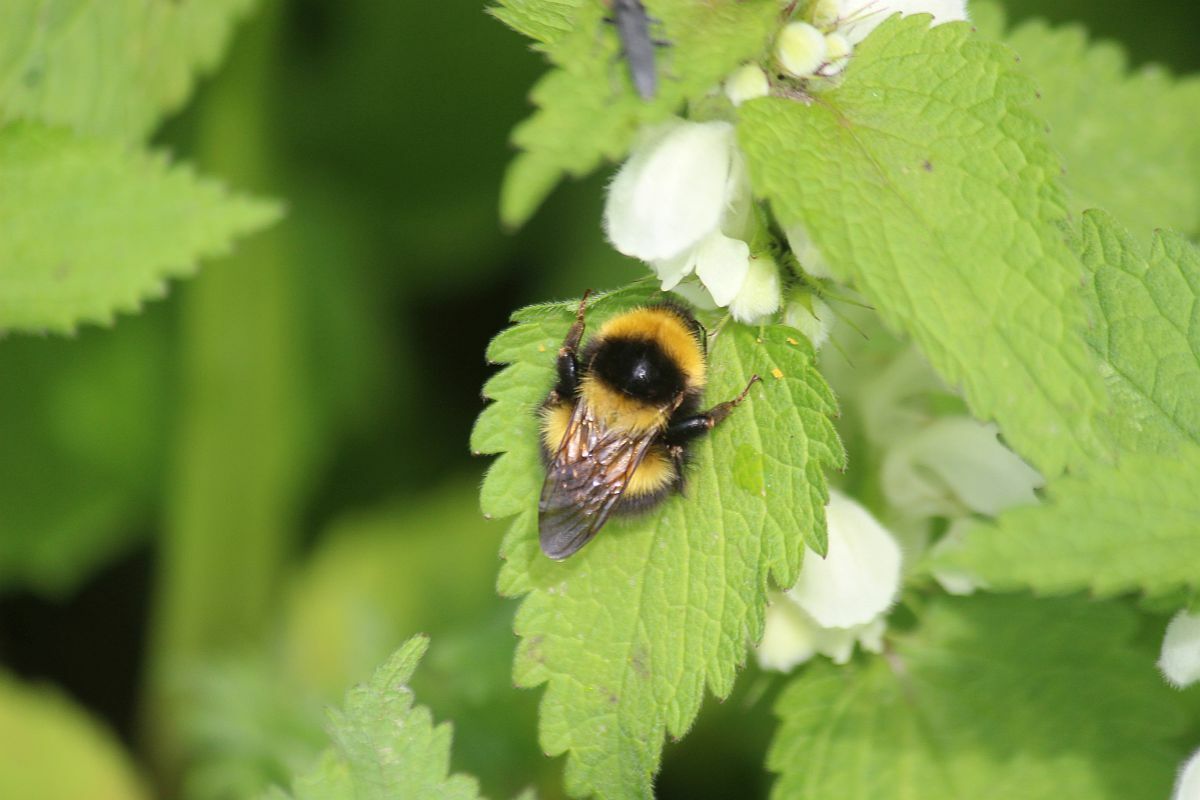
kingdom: Animalia
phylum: Arthropoda
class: Insecta
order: Hymenoptera
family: Apidae
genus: Bombus
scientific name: Bombus hortorum
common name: Garden bumblebee
